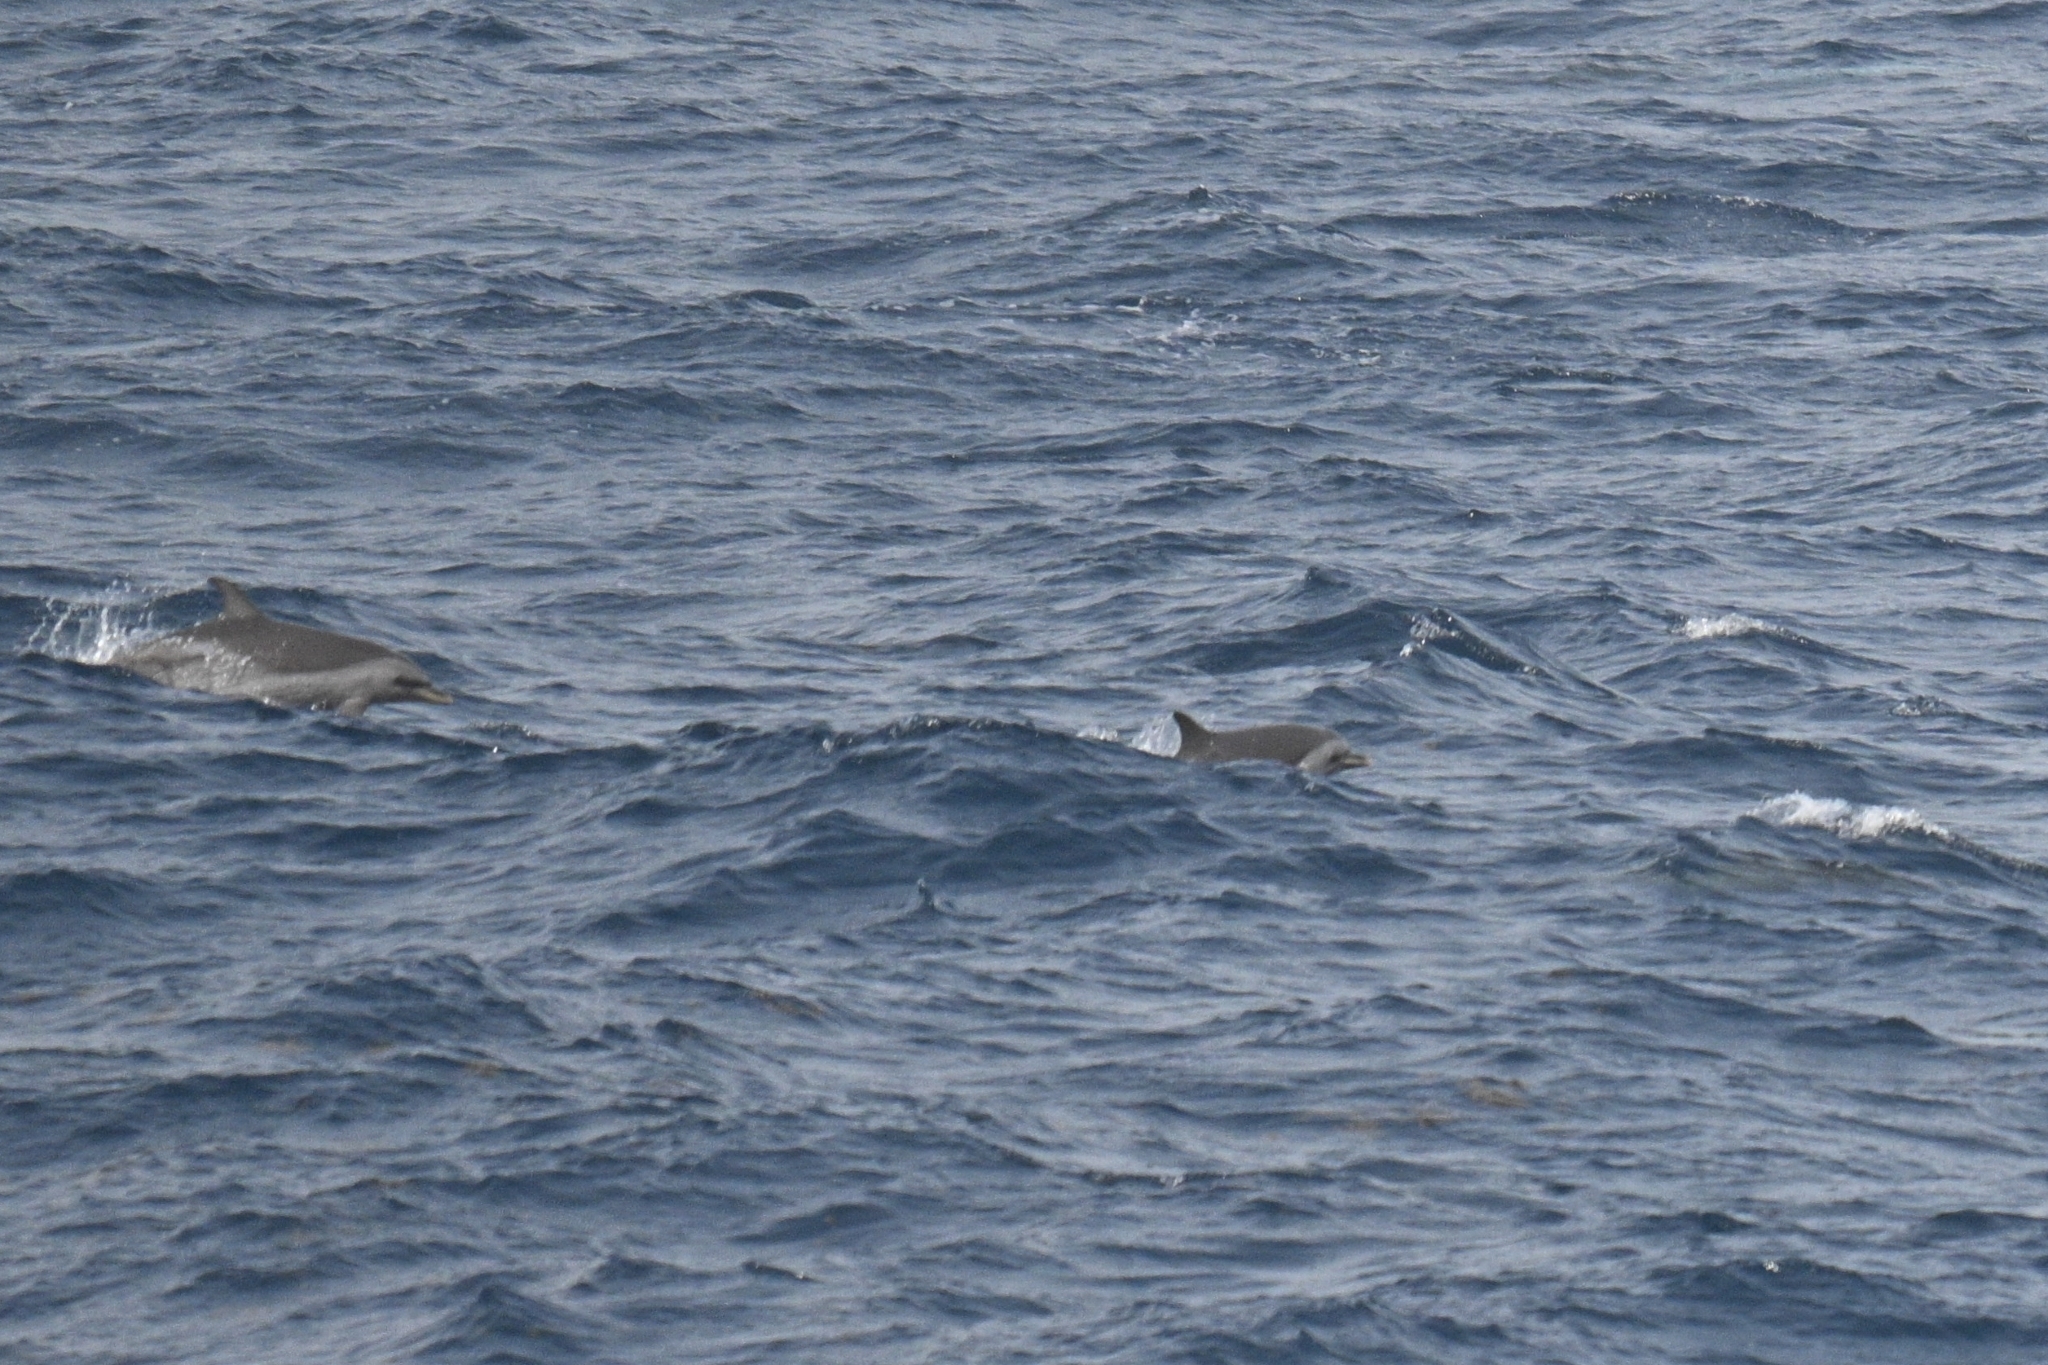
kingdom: Animalia
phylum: Chordata
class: Mammalia
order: Cetacea
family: Delphinidae
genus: Stenella
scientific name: Stenella attenuata
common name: Pantropical spotted dolphin
